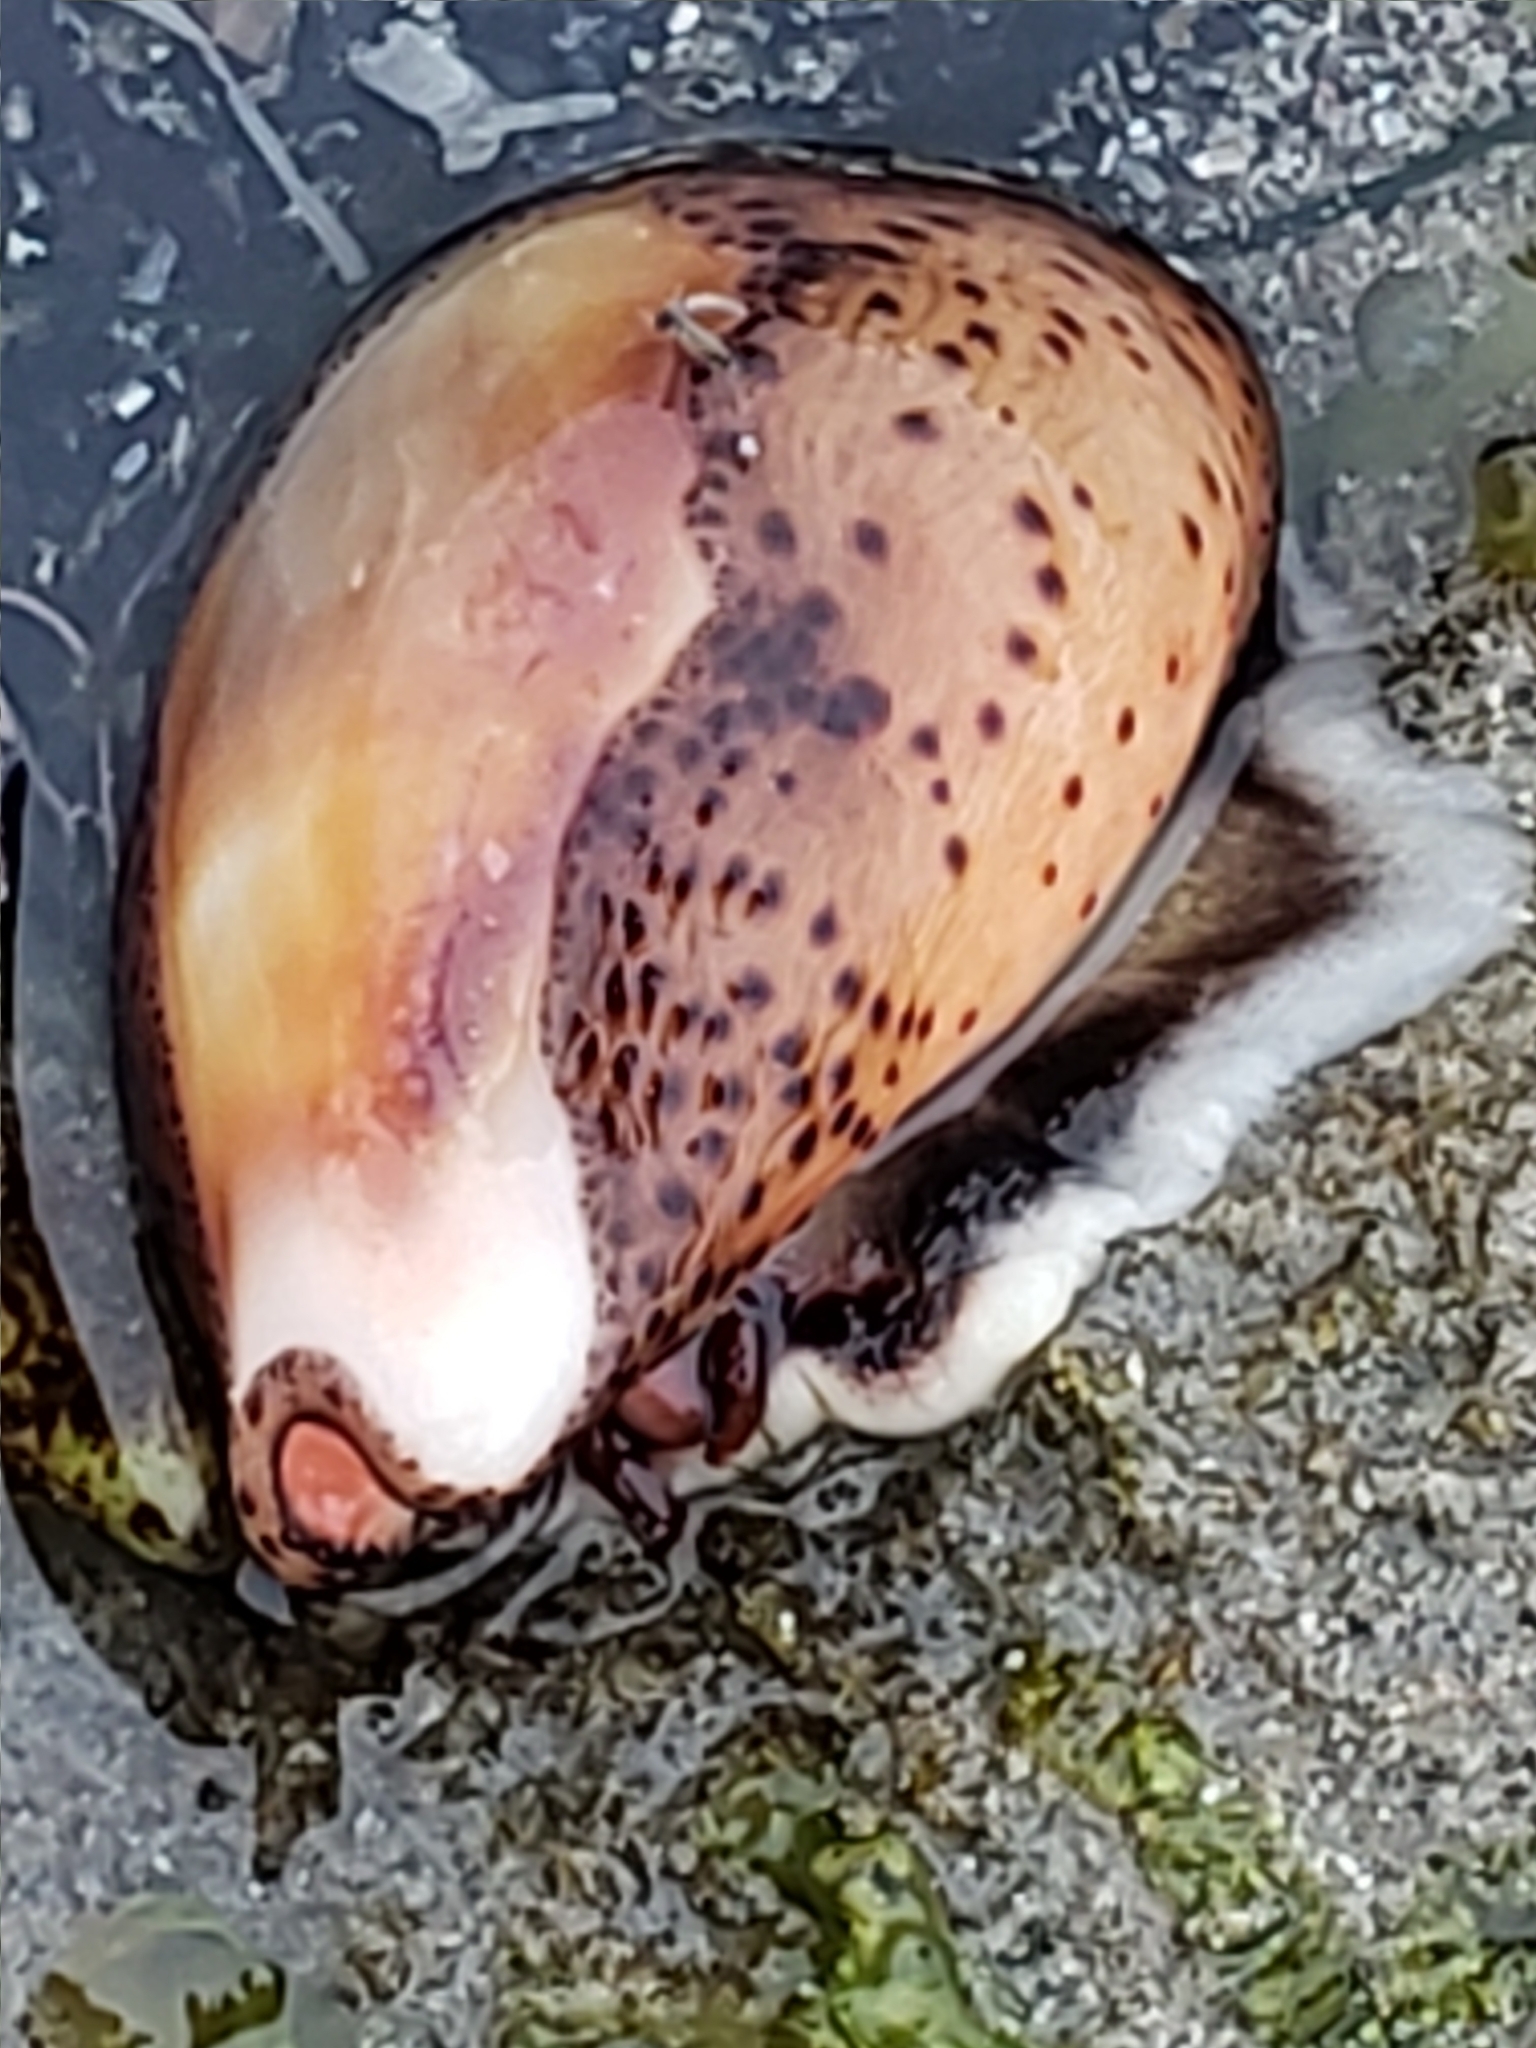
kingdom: Animalia
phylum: Mollusca
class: Gastropoda
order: Littorinimorpha
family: Cypraeidae
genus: Neobernaya
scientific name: Neobernaya spadicea
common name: Chestnut cowrie
